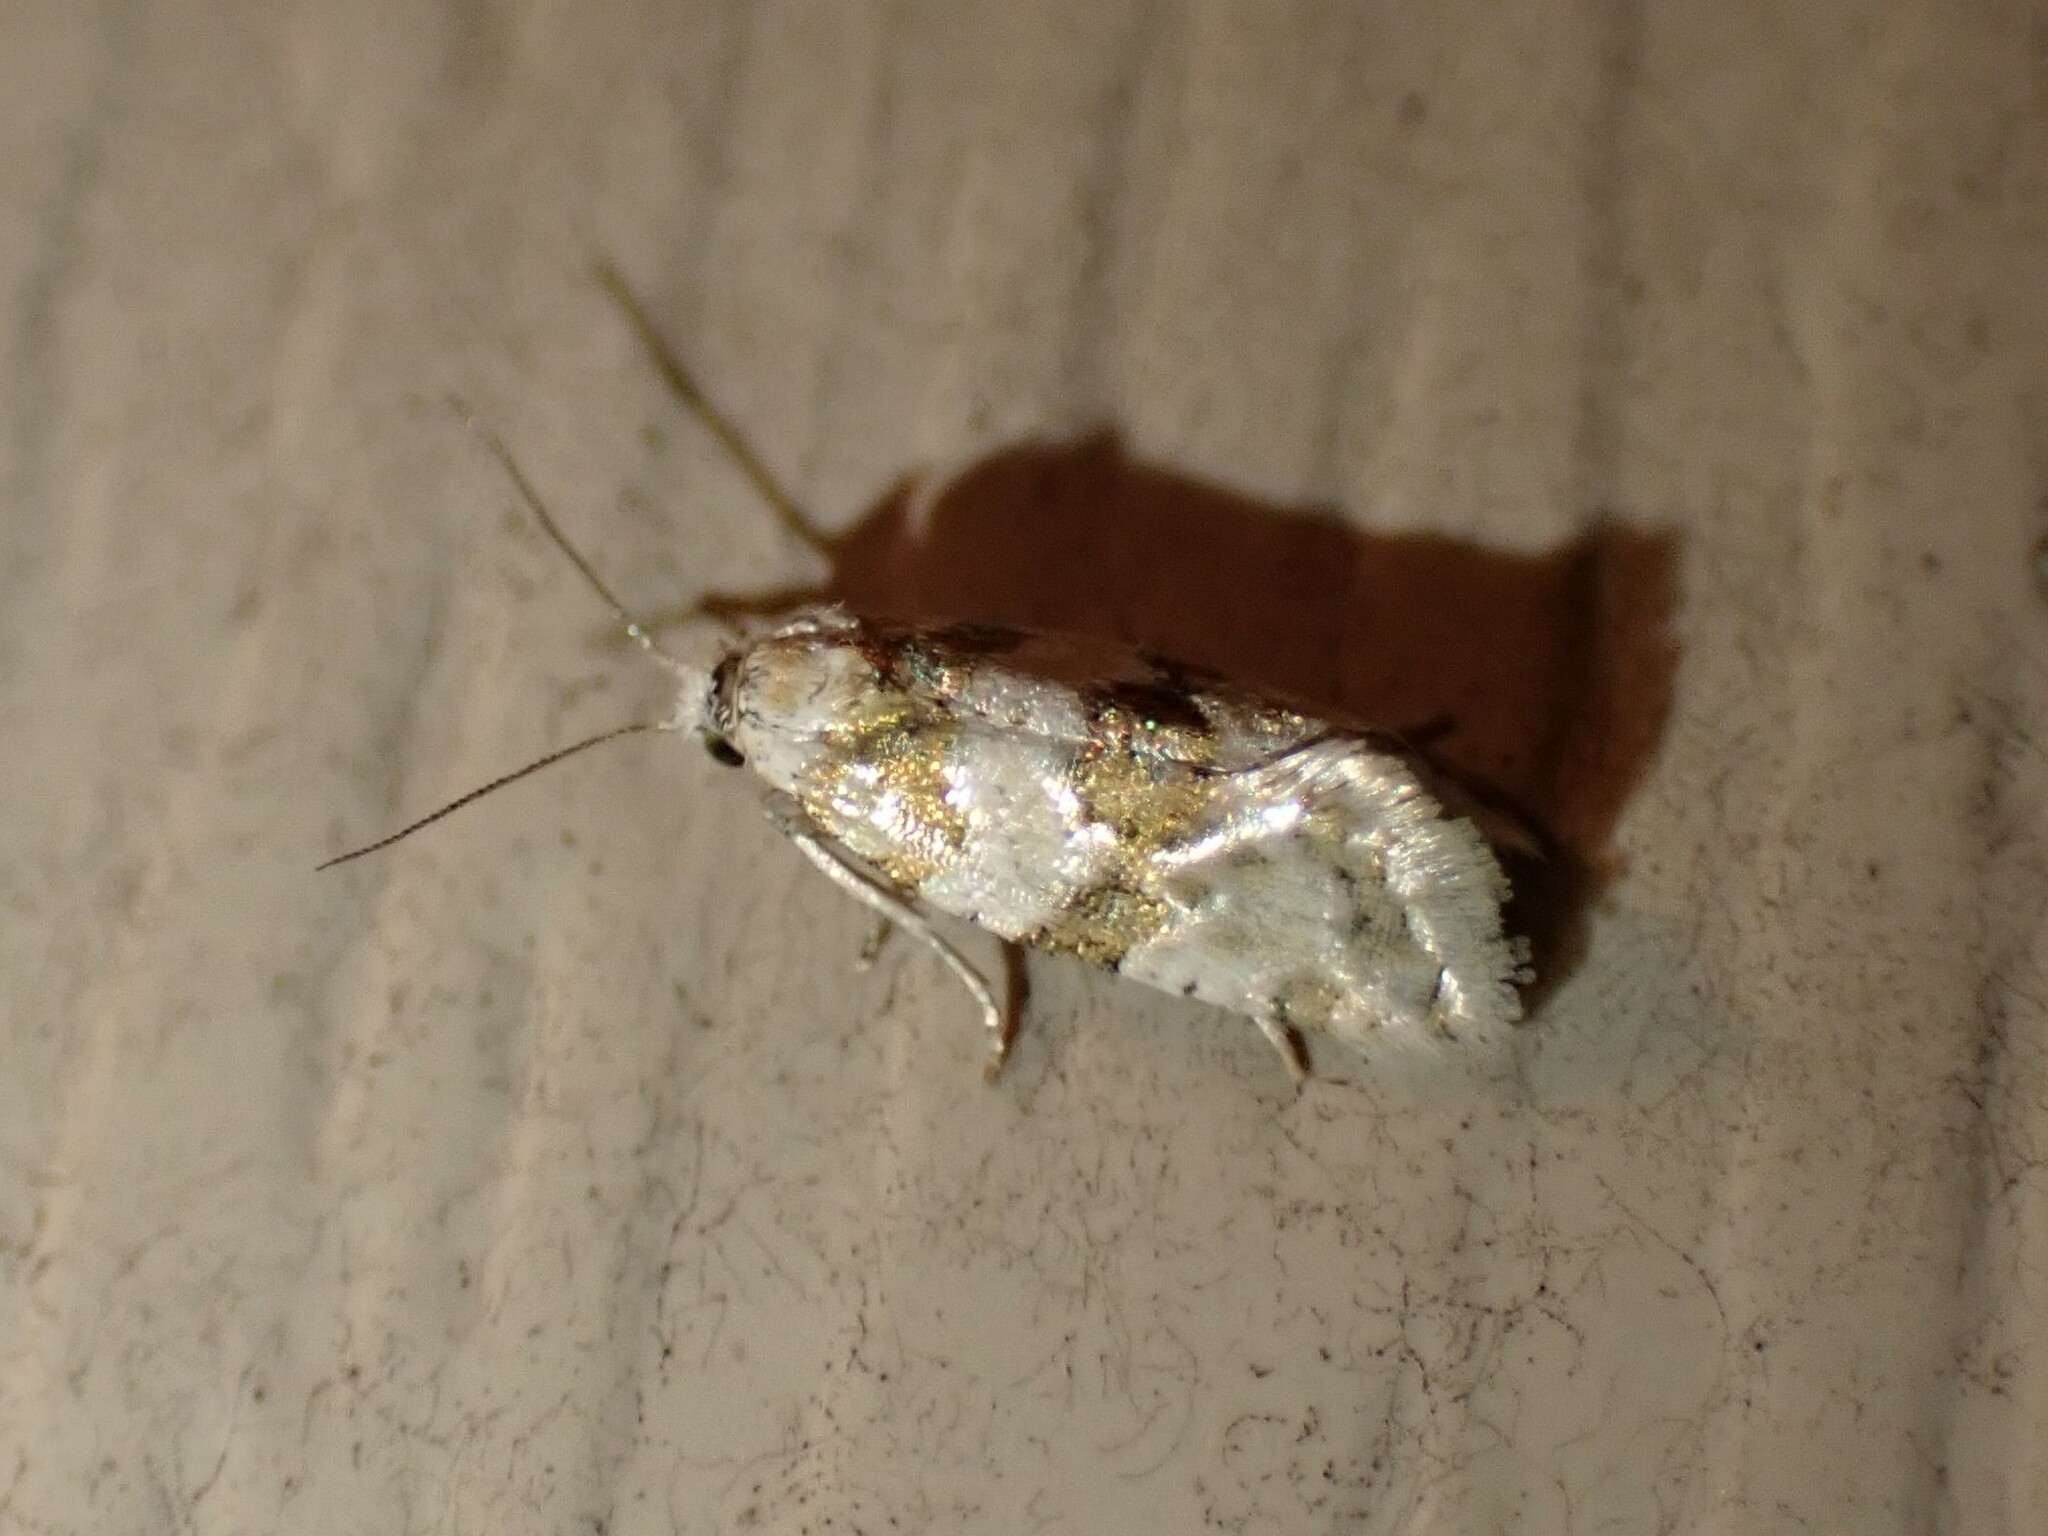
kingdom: Animalia
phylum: Arthropoda
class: Insecta
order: Lepidoptera
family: Tortricidae
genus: Aethes
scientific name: Aethes argentilimitana
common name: Silver-bordered aethes
